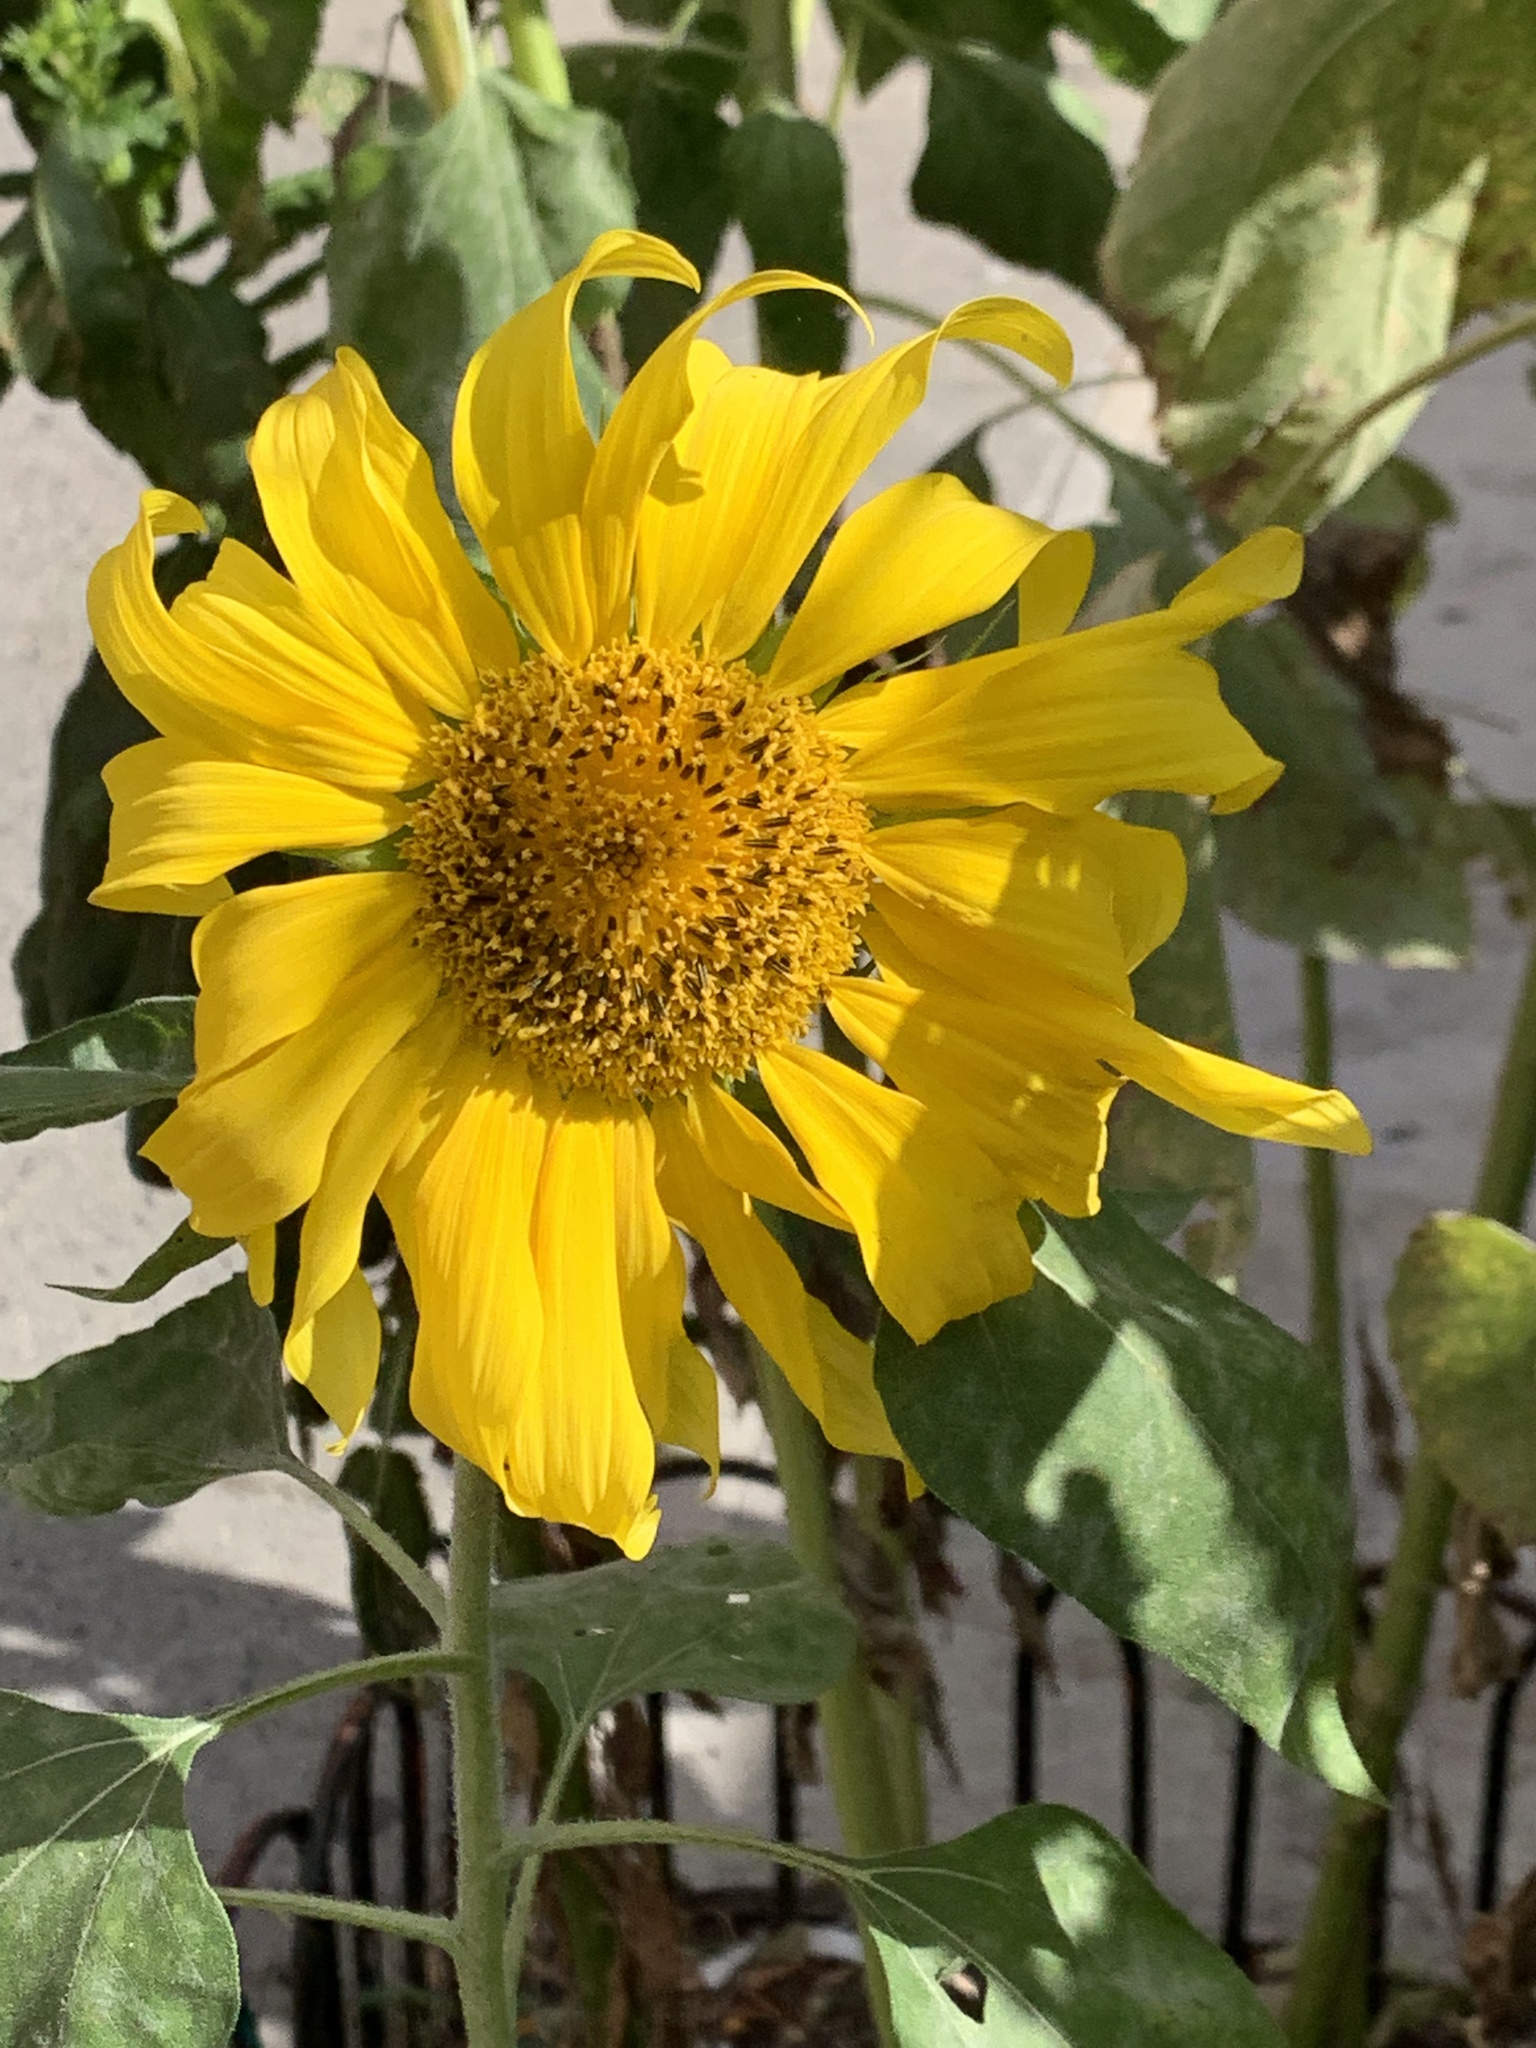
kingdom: Plantae
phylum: Tracheophyta
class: Magnoliopsida
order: Asterales
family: Asteraceae
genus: Helianthus
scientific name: Helianthus annuus
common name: Sunflower
